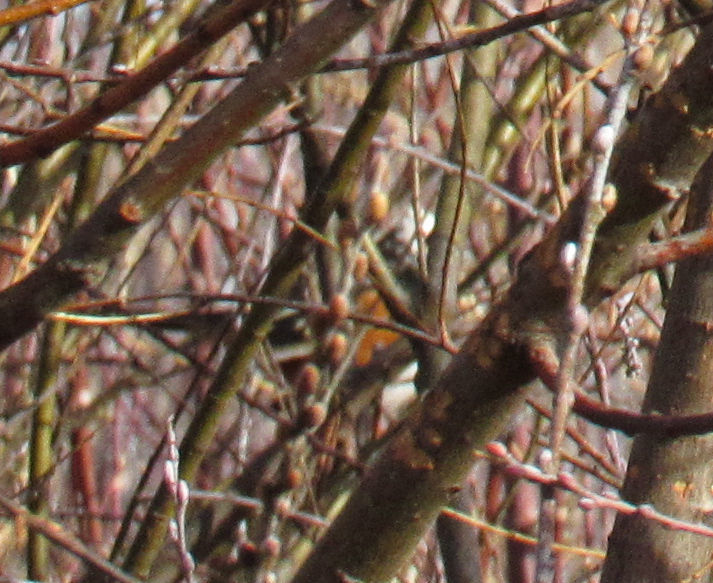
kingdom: Animalia
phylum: Chordata
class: Aves
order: Passeriformes
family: Passerellidae
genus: Pipilo
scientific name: Pipilo maculatus
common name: Spotted towhee
